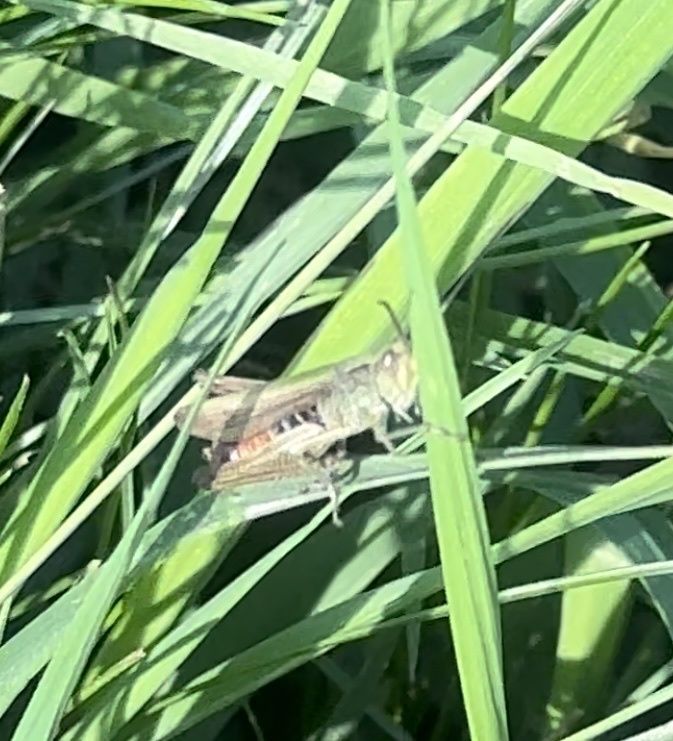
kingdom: Animalia
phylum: Arthropoda
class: Insecta
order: Orthoptera
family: Acrididae
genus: Chorthippus
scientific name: Chorthippus dorsatus
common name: Steppe grasshopper
